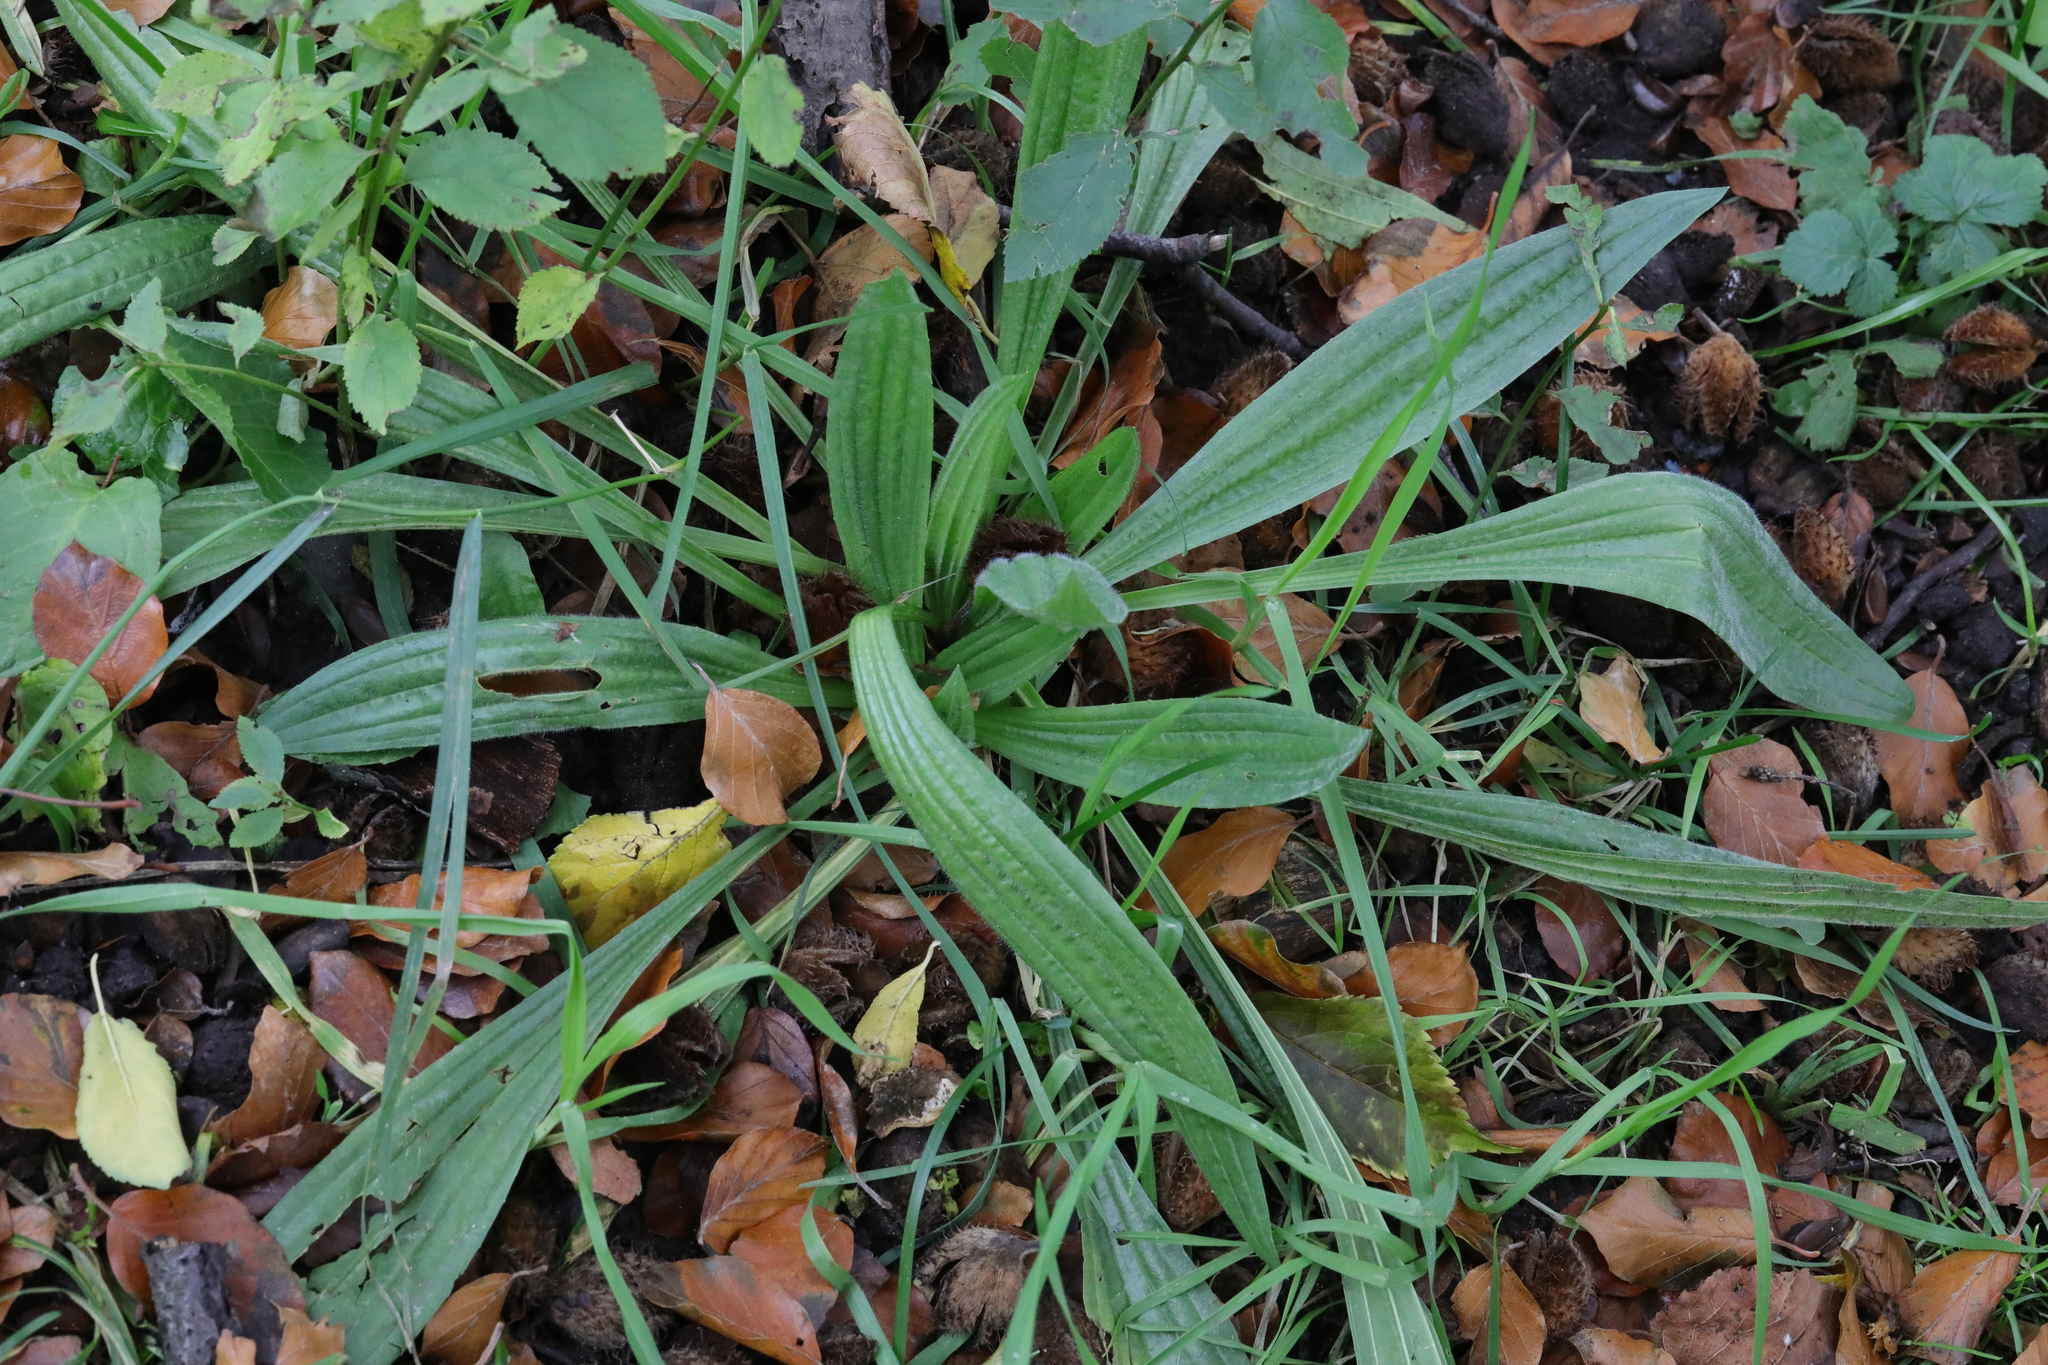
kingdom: Plantae
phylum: Tracheophyta
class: Magnoliopsida
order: Lamiales
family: Plantaginaceae
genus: Plantago
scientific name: Plantago lanceolata
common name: Ribwort plantain
